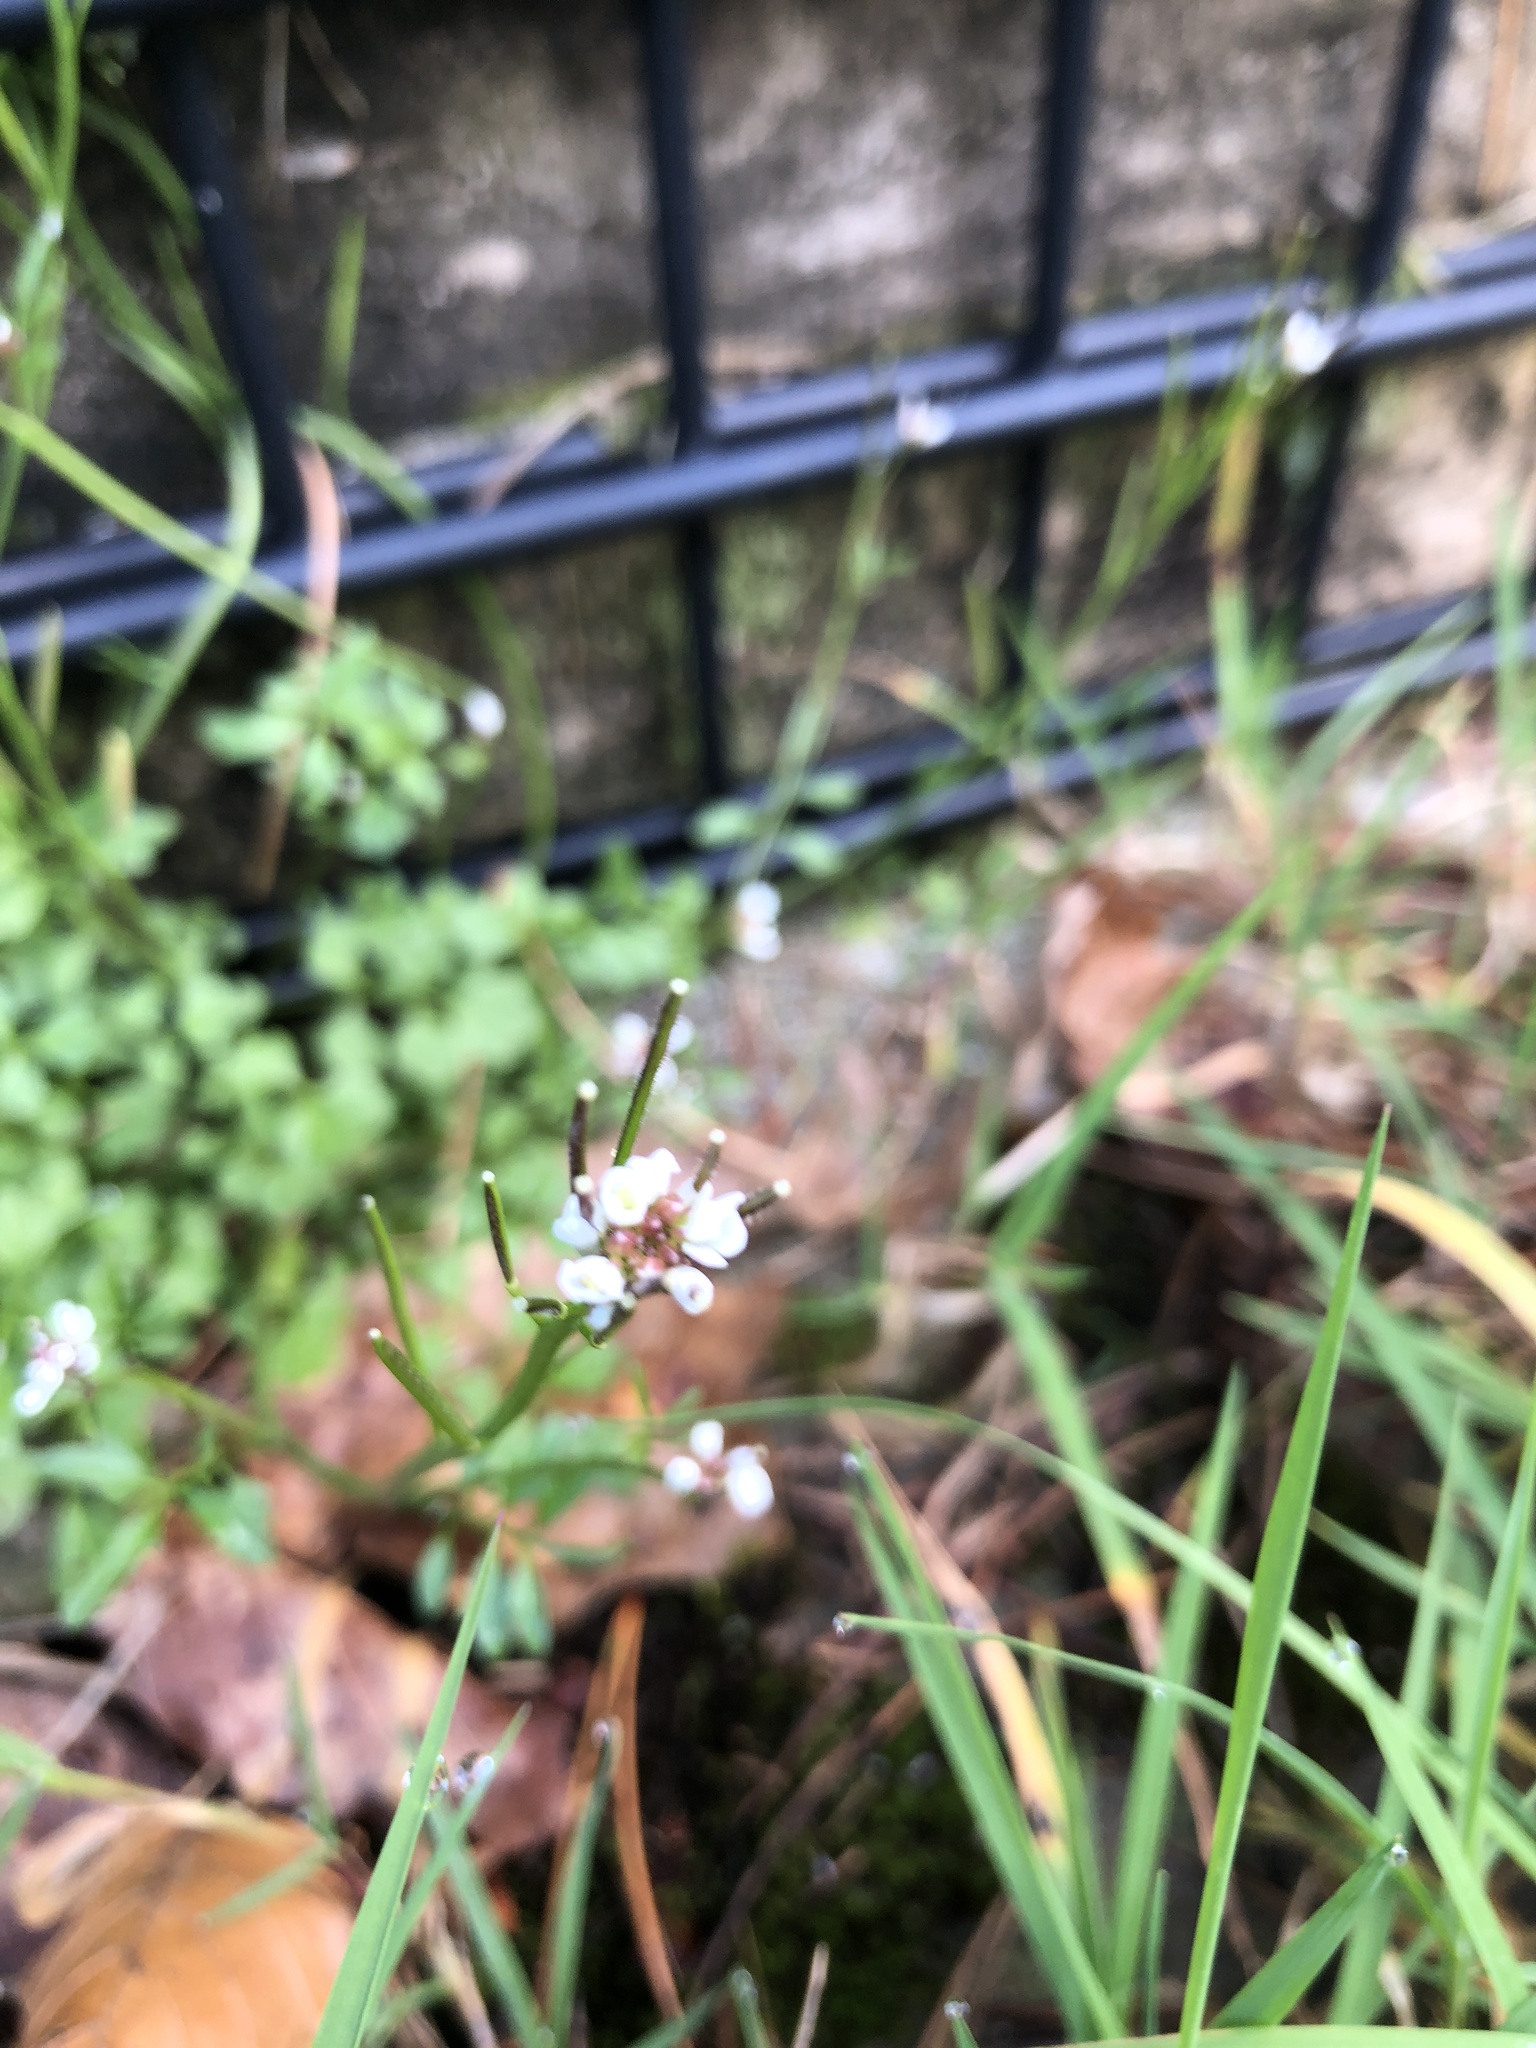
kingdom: Plantae
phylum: Tracheophyta
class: Magnoliopsida
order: Brassicales
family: Brassicaceae
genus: Cardamine
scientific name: Cardamine hirsuta
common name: Hairy bittercress
